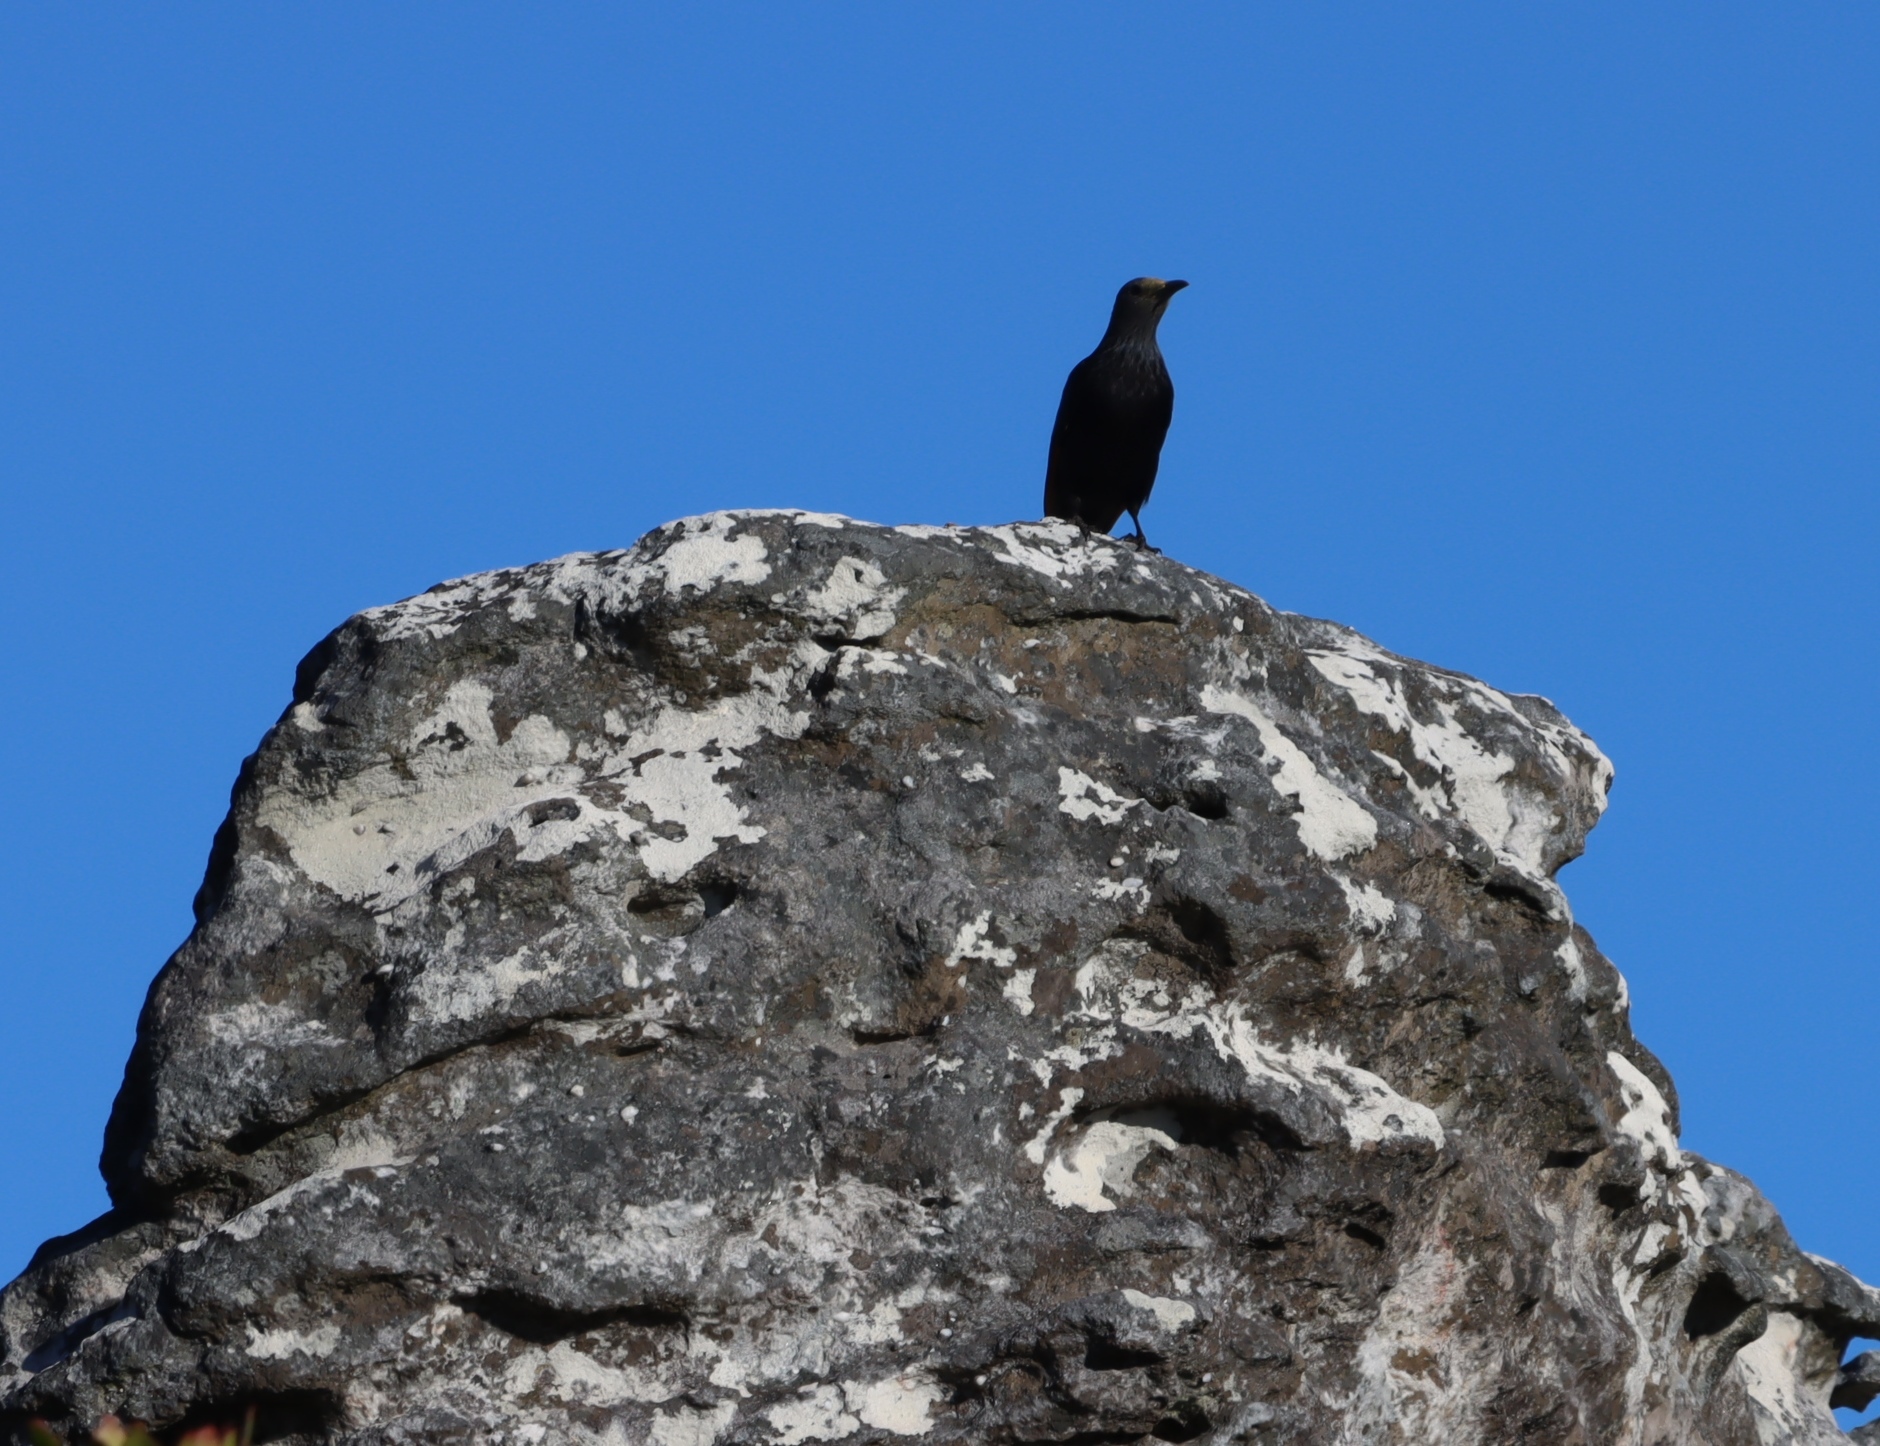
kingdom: Animalia
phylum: Chordata
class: Aves
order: Passeriformes
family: Sturnidae
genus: Onychognathus
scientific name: Onychognathus morio
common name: Red-winged starling
